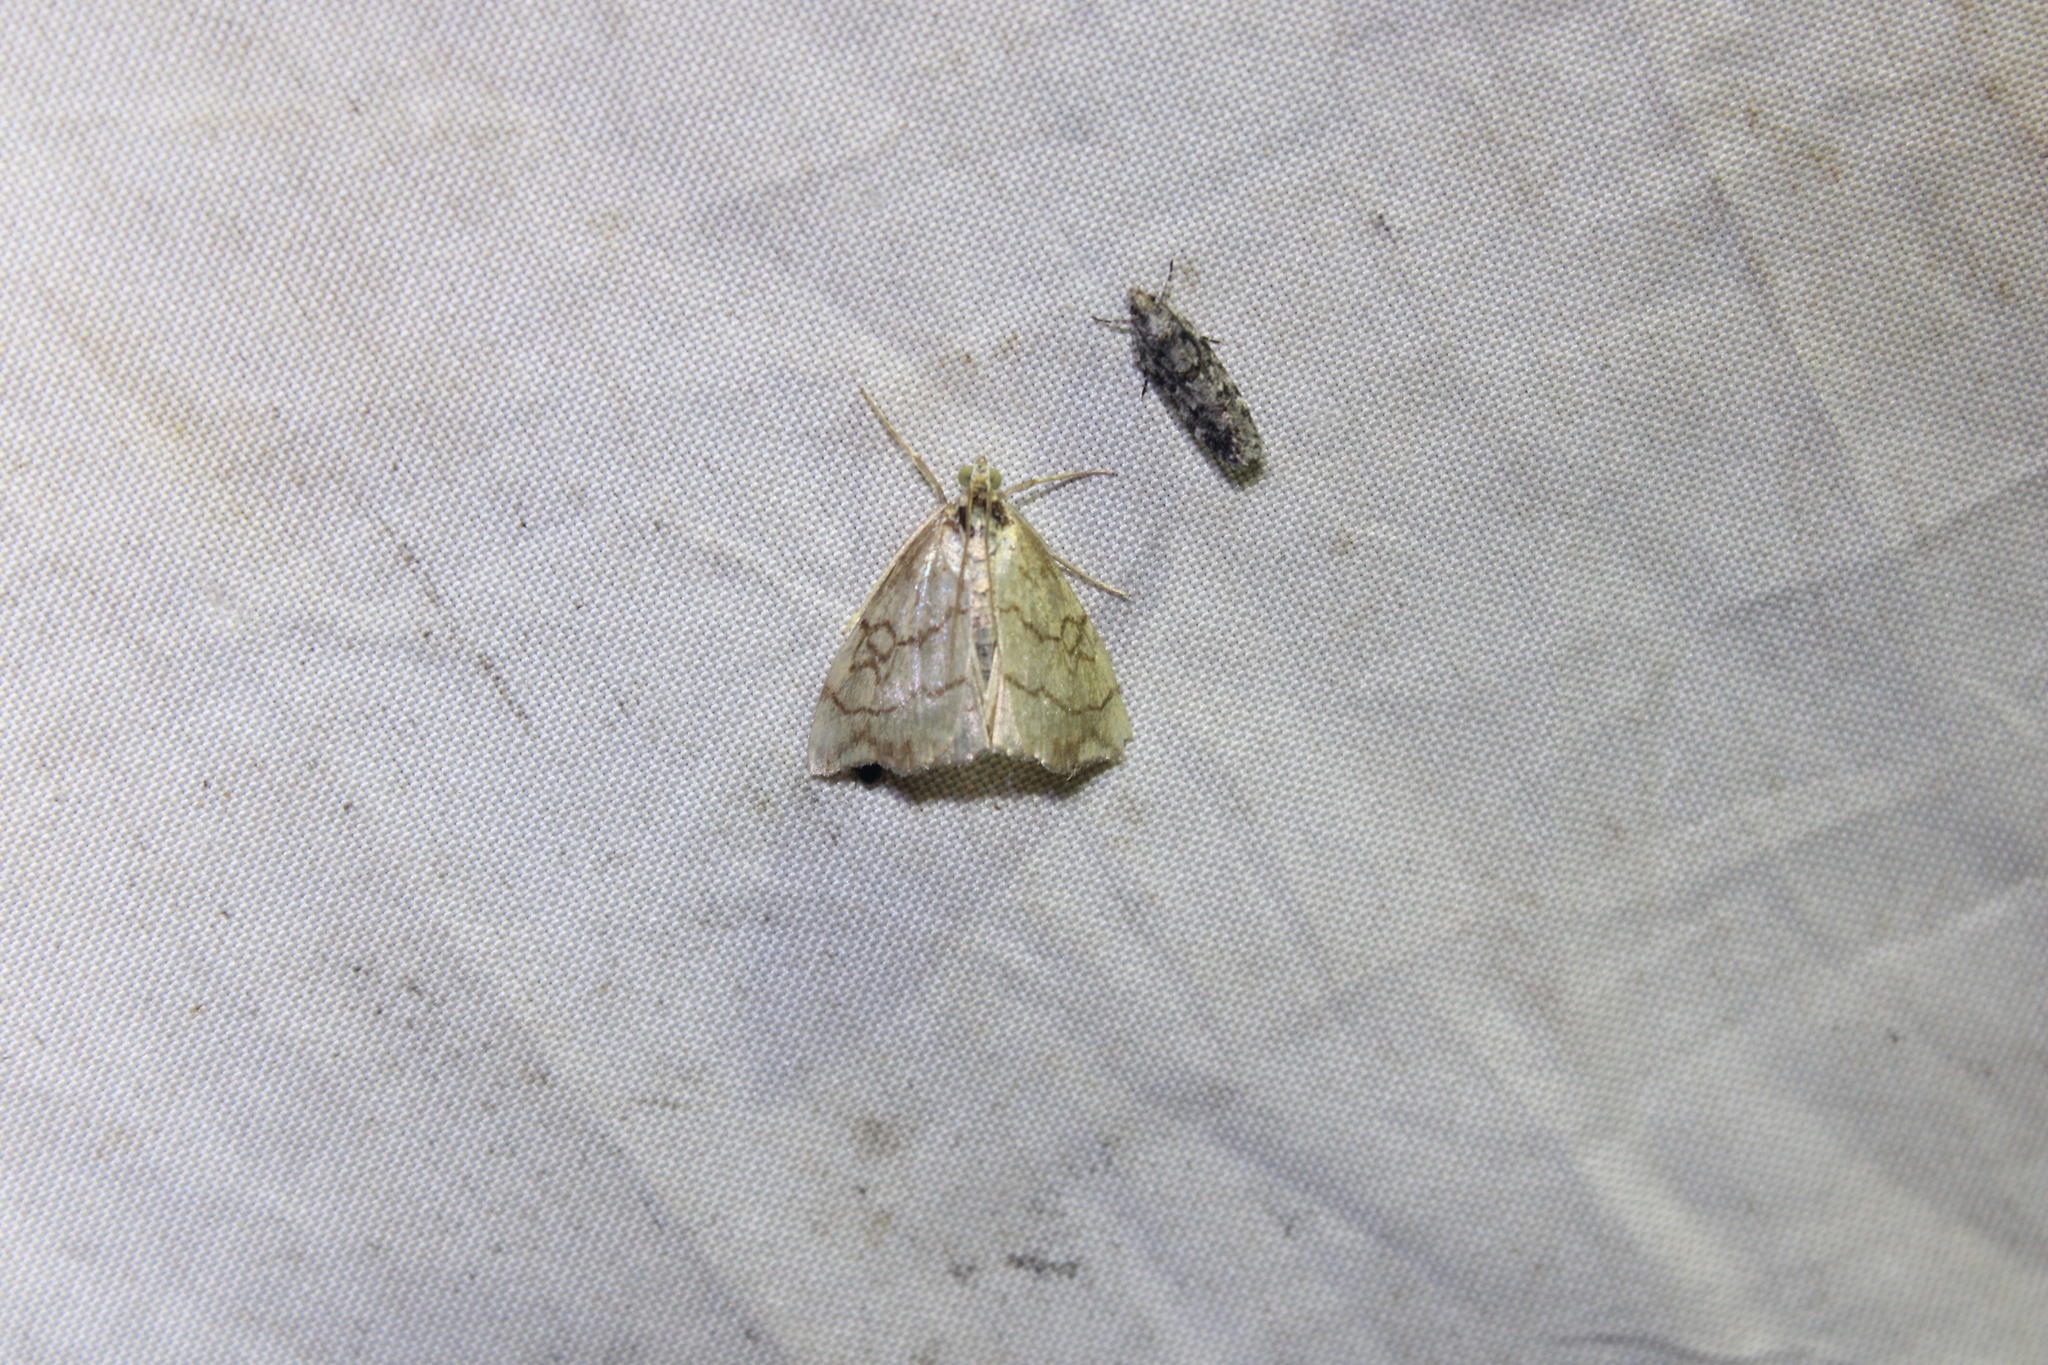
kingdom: Animalia
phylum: Arthropoda
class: Insecta
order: Lepidoptera
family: Crambidae
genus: Evergestis
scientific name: Evergestis pallidata
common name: Chequered pearl
